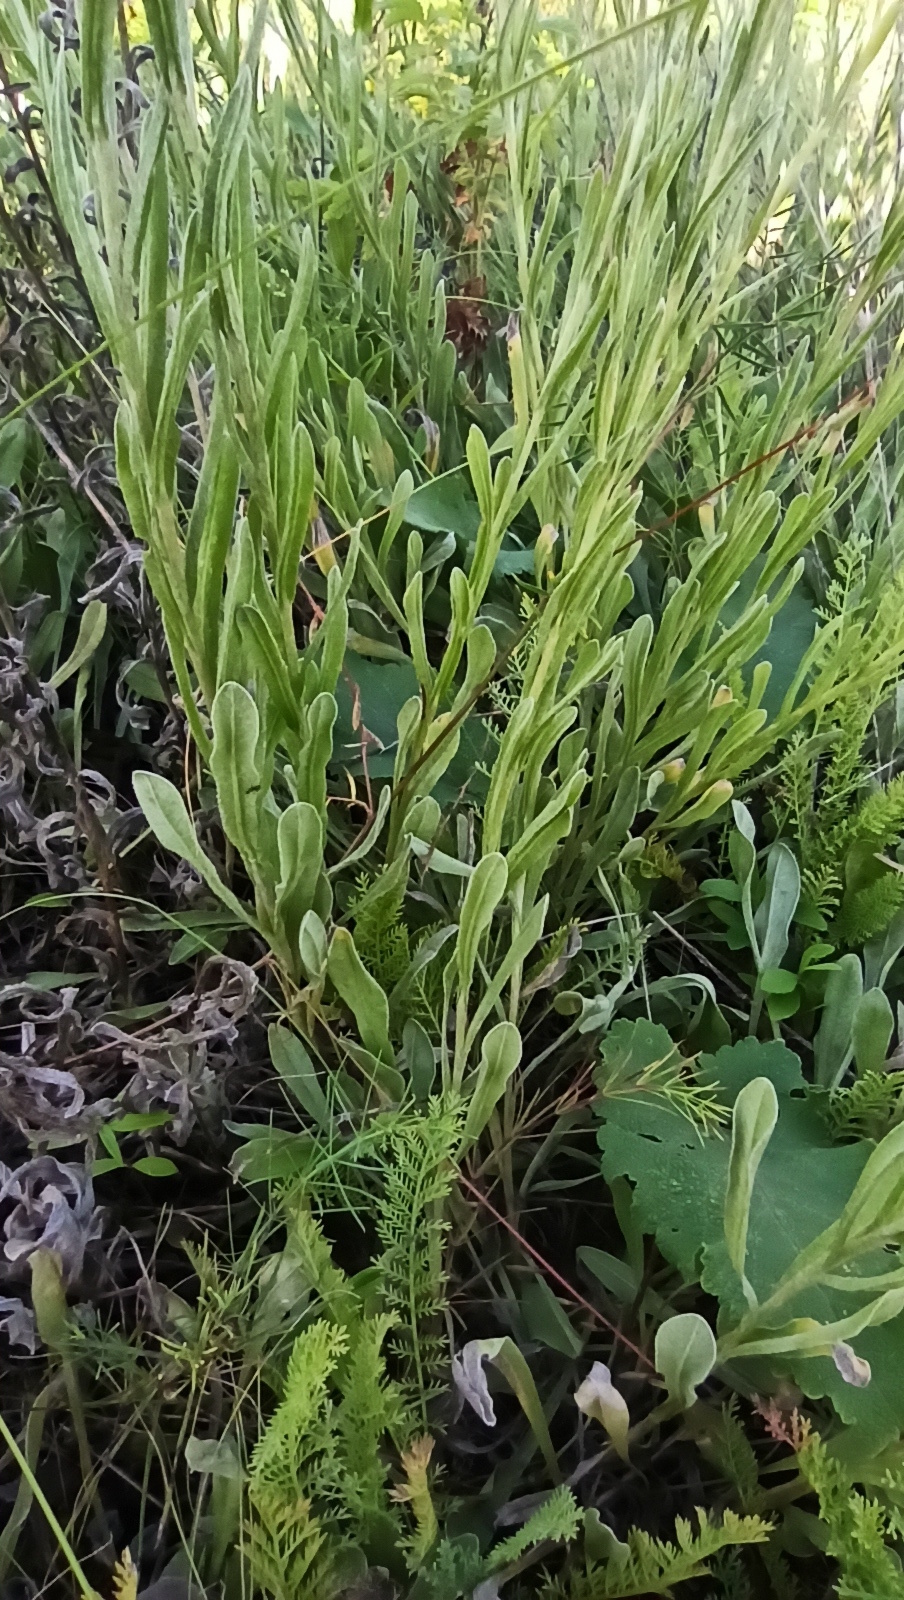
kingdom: Plantae
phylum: Tracheophyta
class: Magnoliopsida
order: Asterales
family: Asteraceae
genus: Helichrysum
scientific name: Helichrysum arenarium
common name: Strawflower
